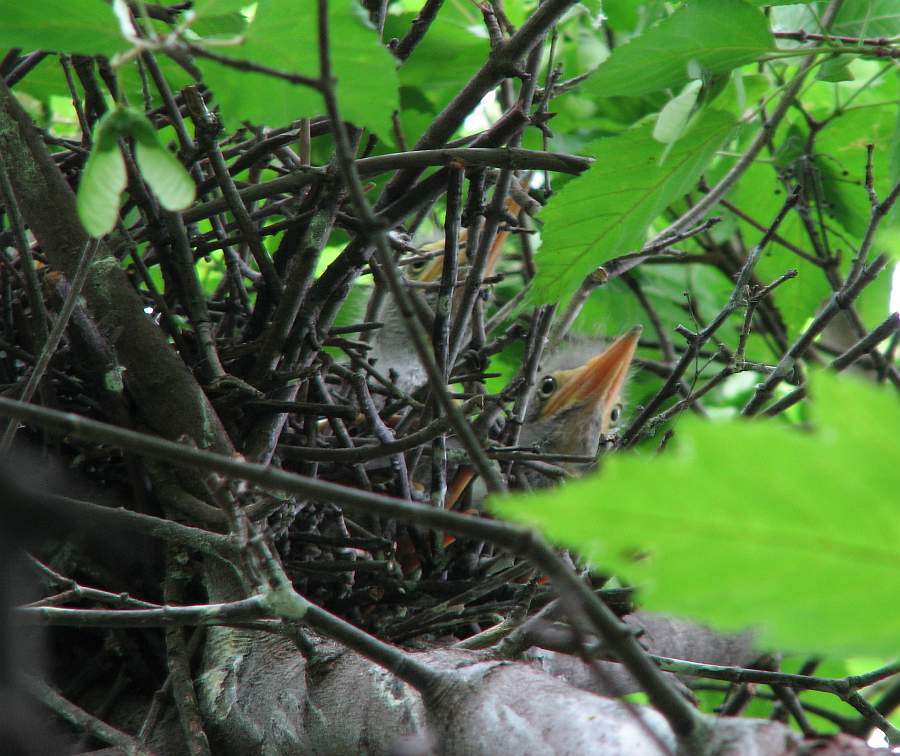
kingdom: Animalia
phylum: Chordata
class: Aves
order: Pelecaniformes
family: Ardeidae
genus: Butorides
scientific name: Butorides virescens
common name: Green heron
